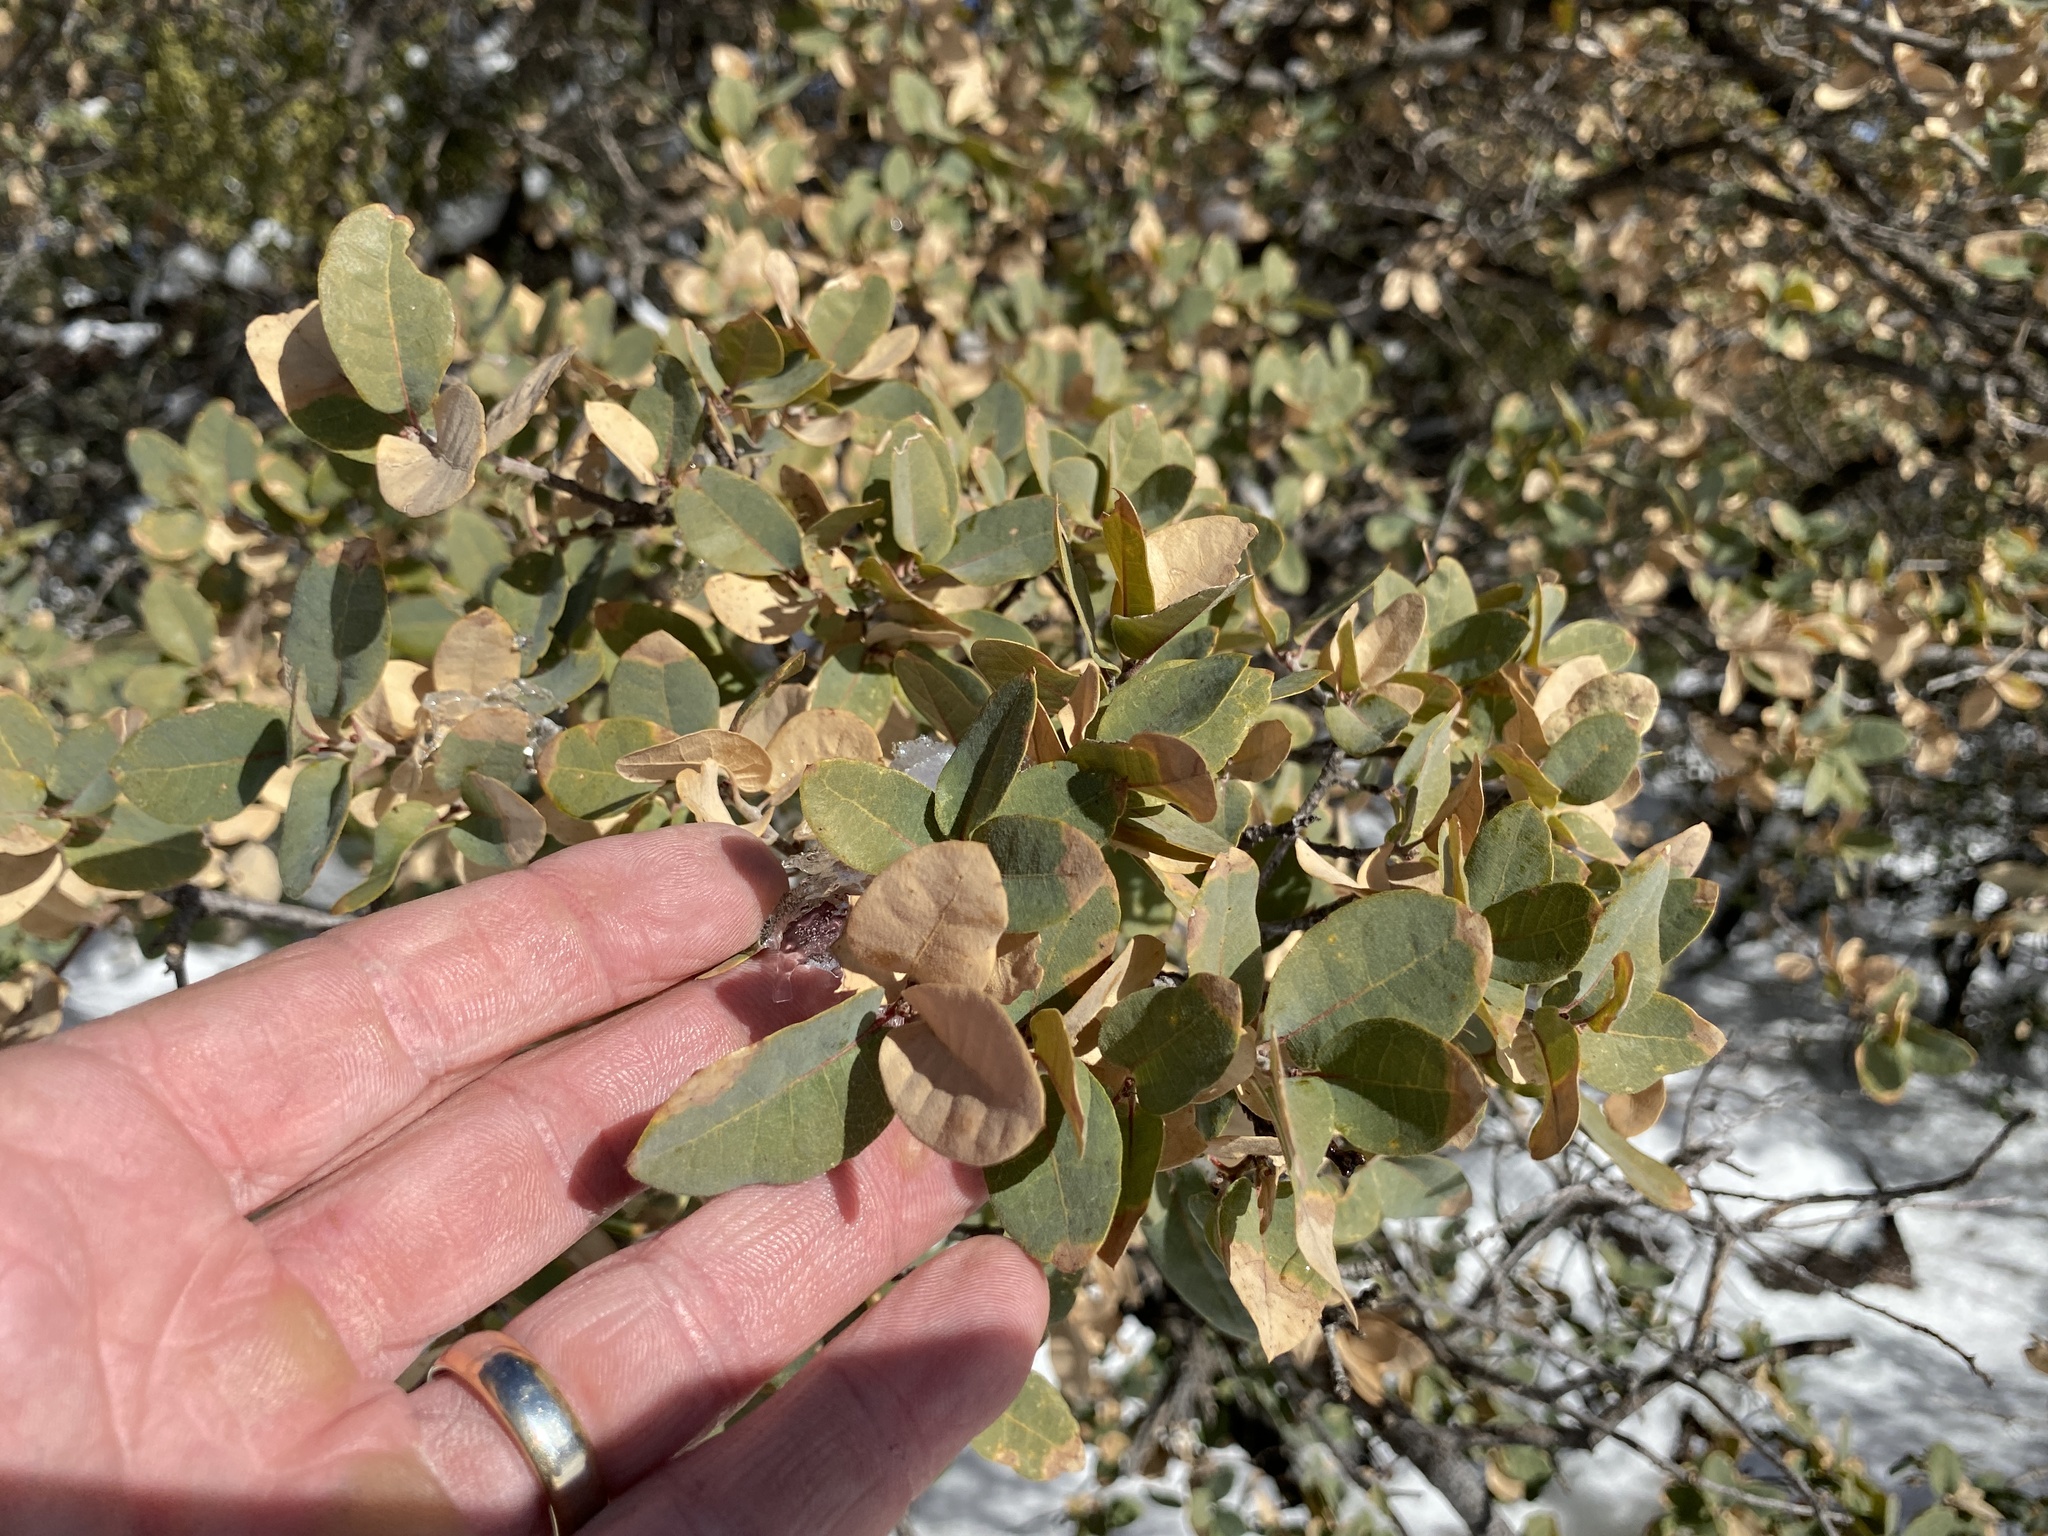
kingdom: Plantae
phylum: Tracheophyta
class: Magnoliopsida
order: Fagales
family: Fagaceae
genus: Quercus
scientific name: Quercus grisea
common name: Gray oak
